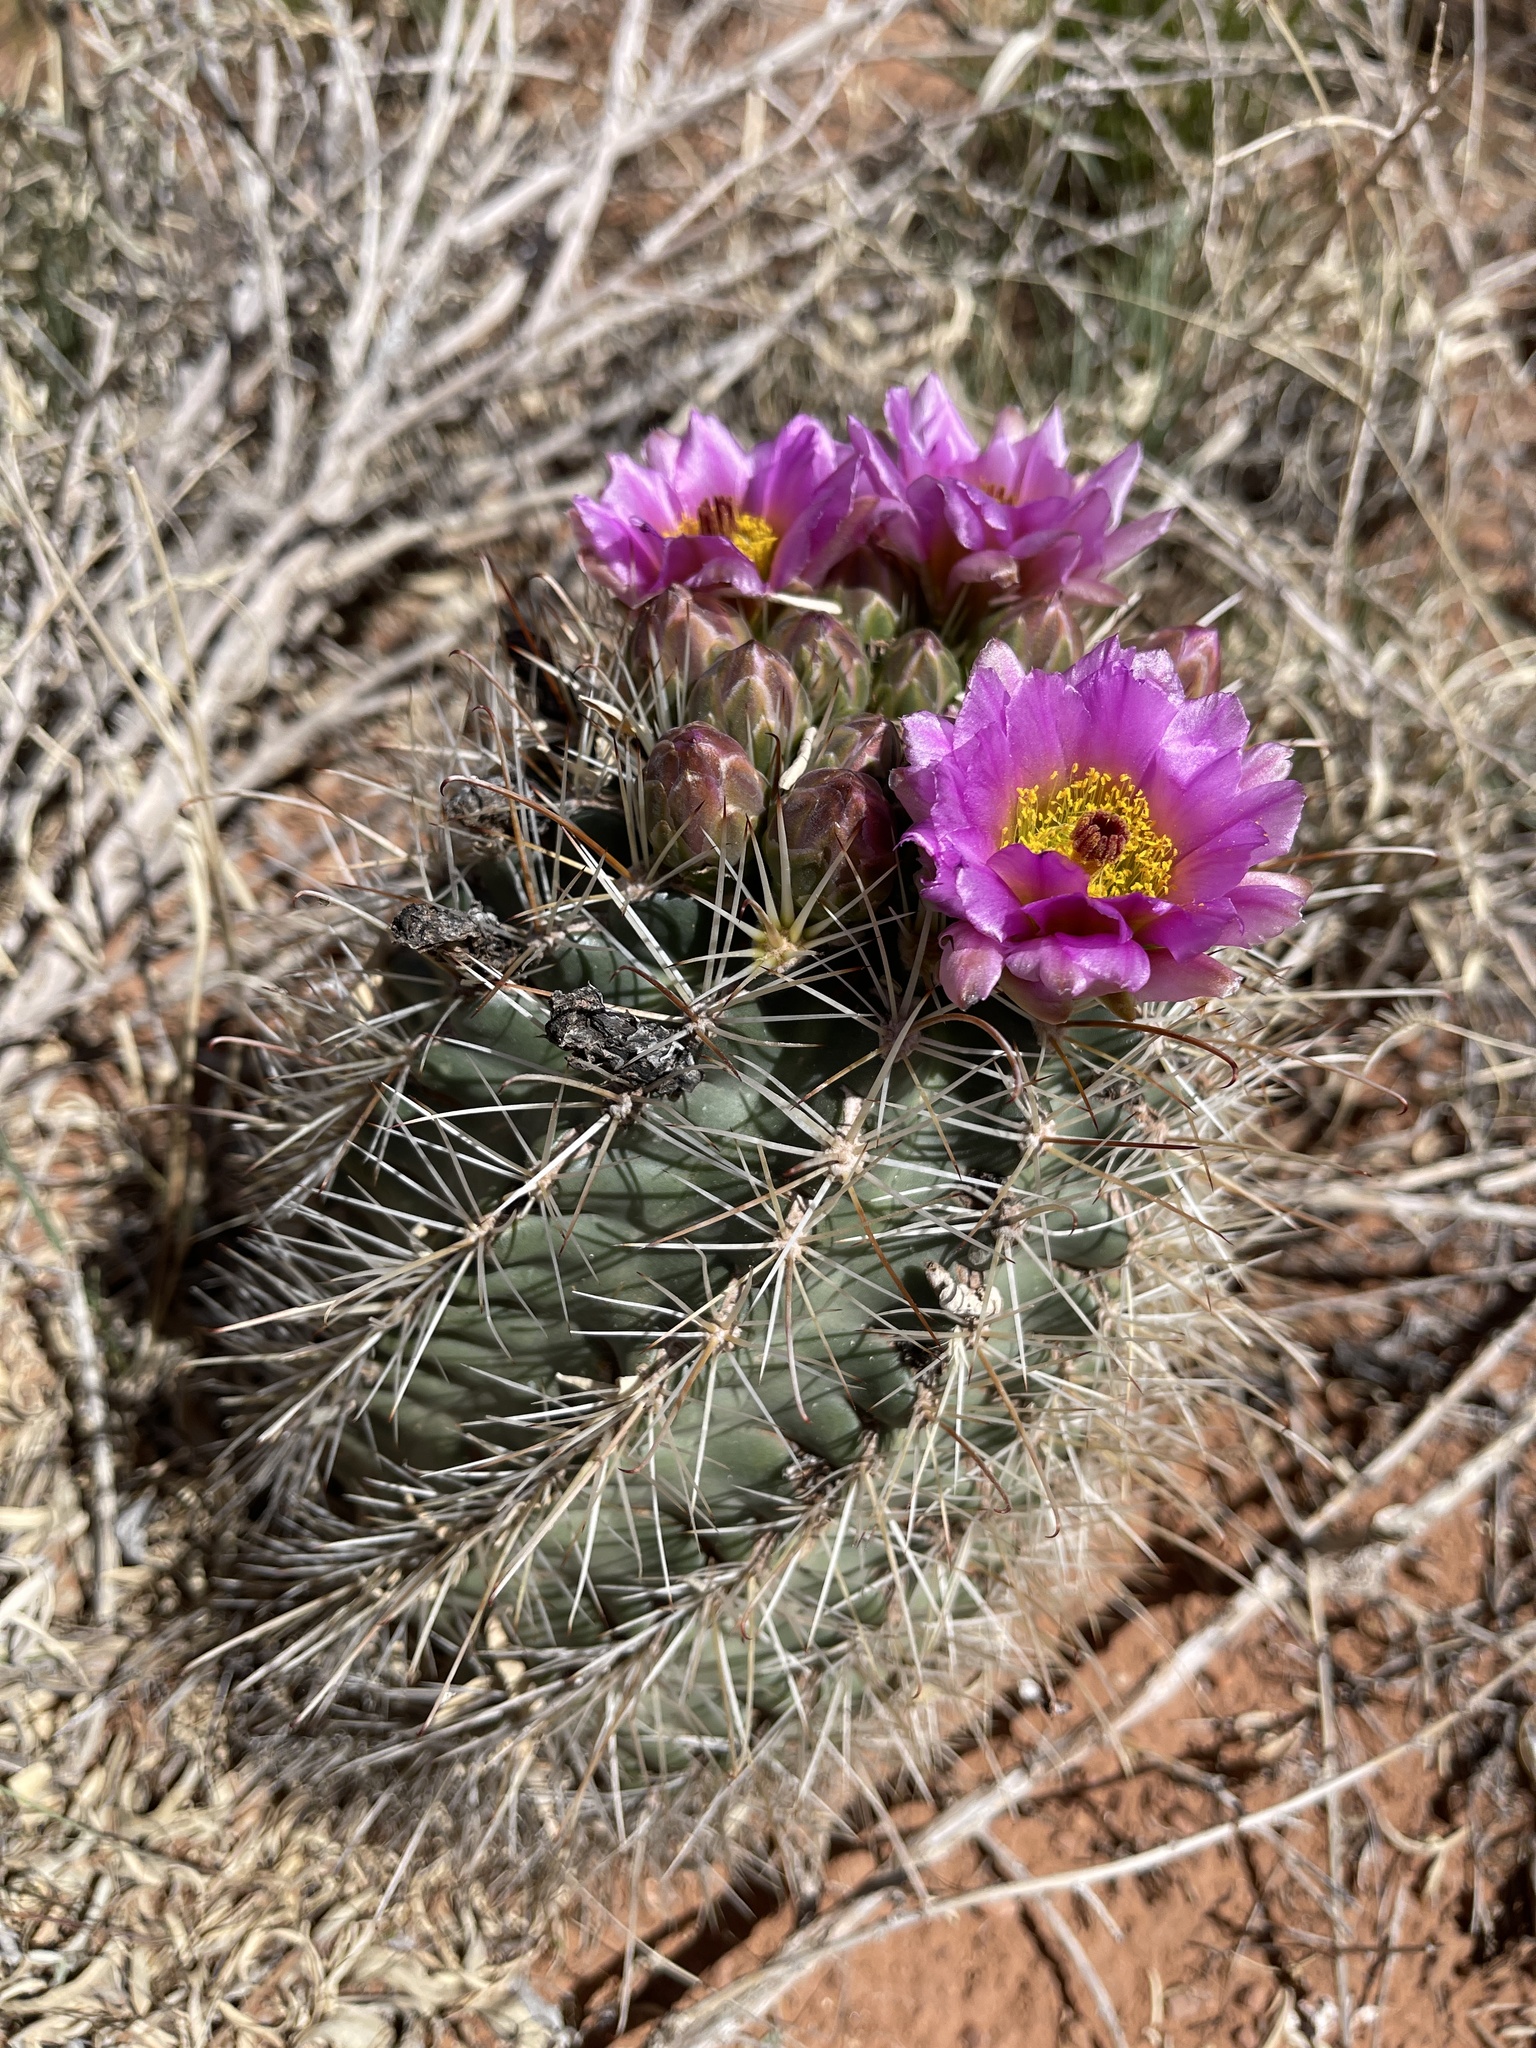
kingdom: Plantae
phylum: Tracheophyta
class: Magnoliopsida
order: Caryophyllales
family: Cactaceae
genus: Sclerocactus
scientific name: Sclerocactus parviflorus
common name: Small-flower fishhook cactus
